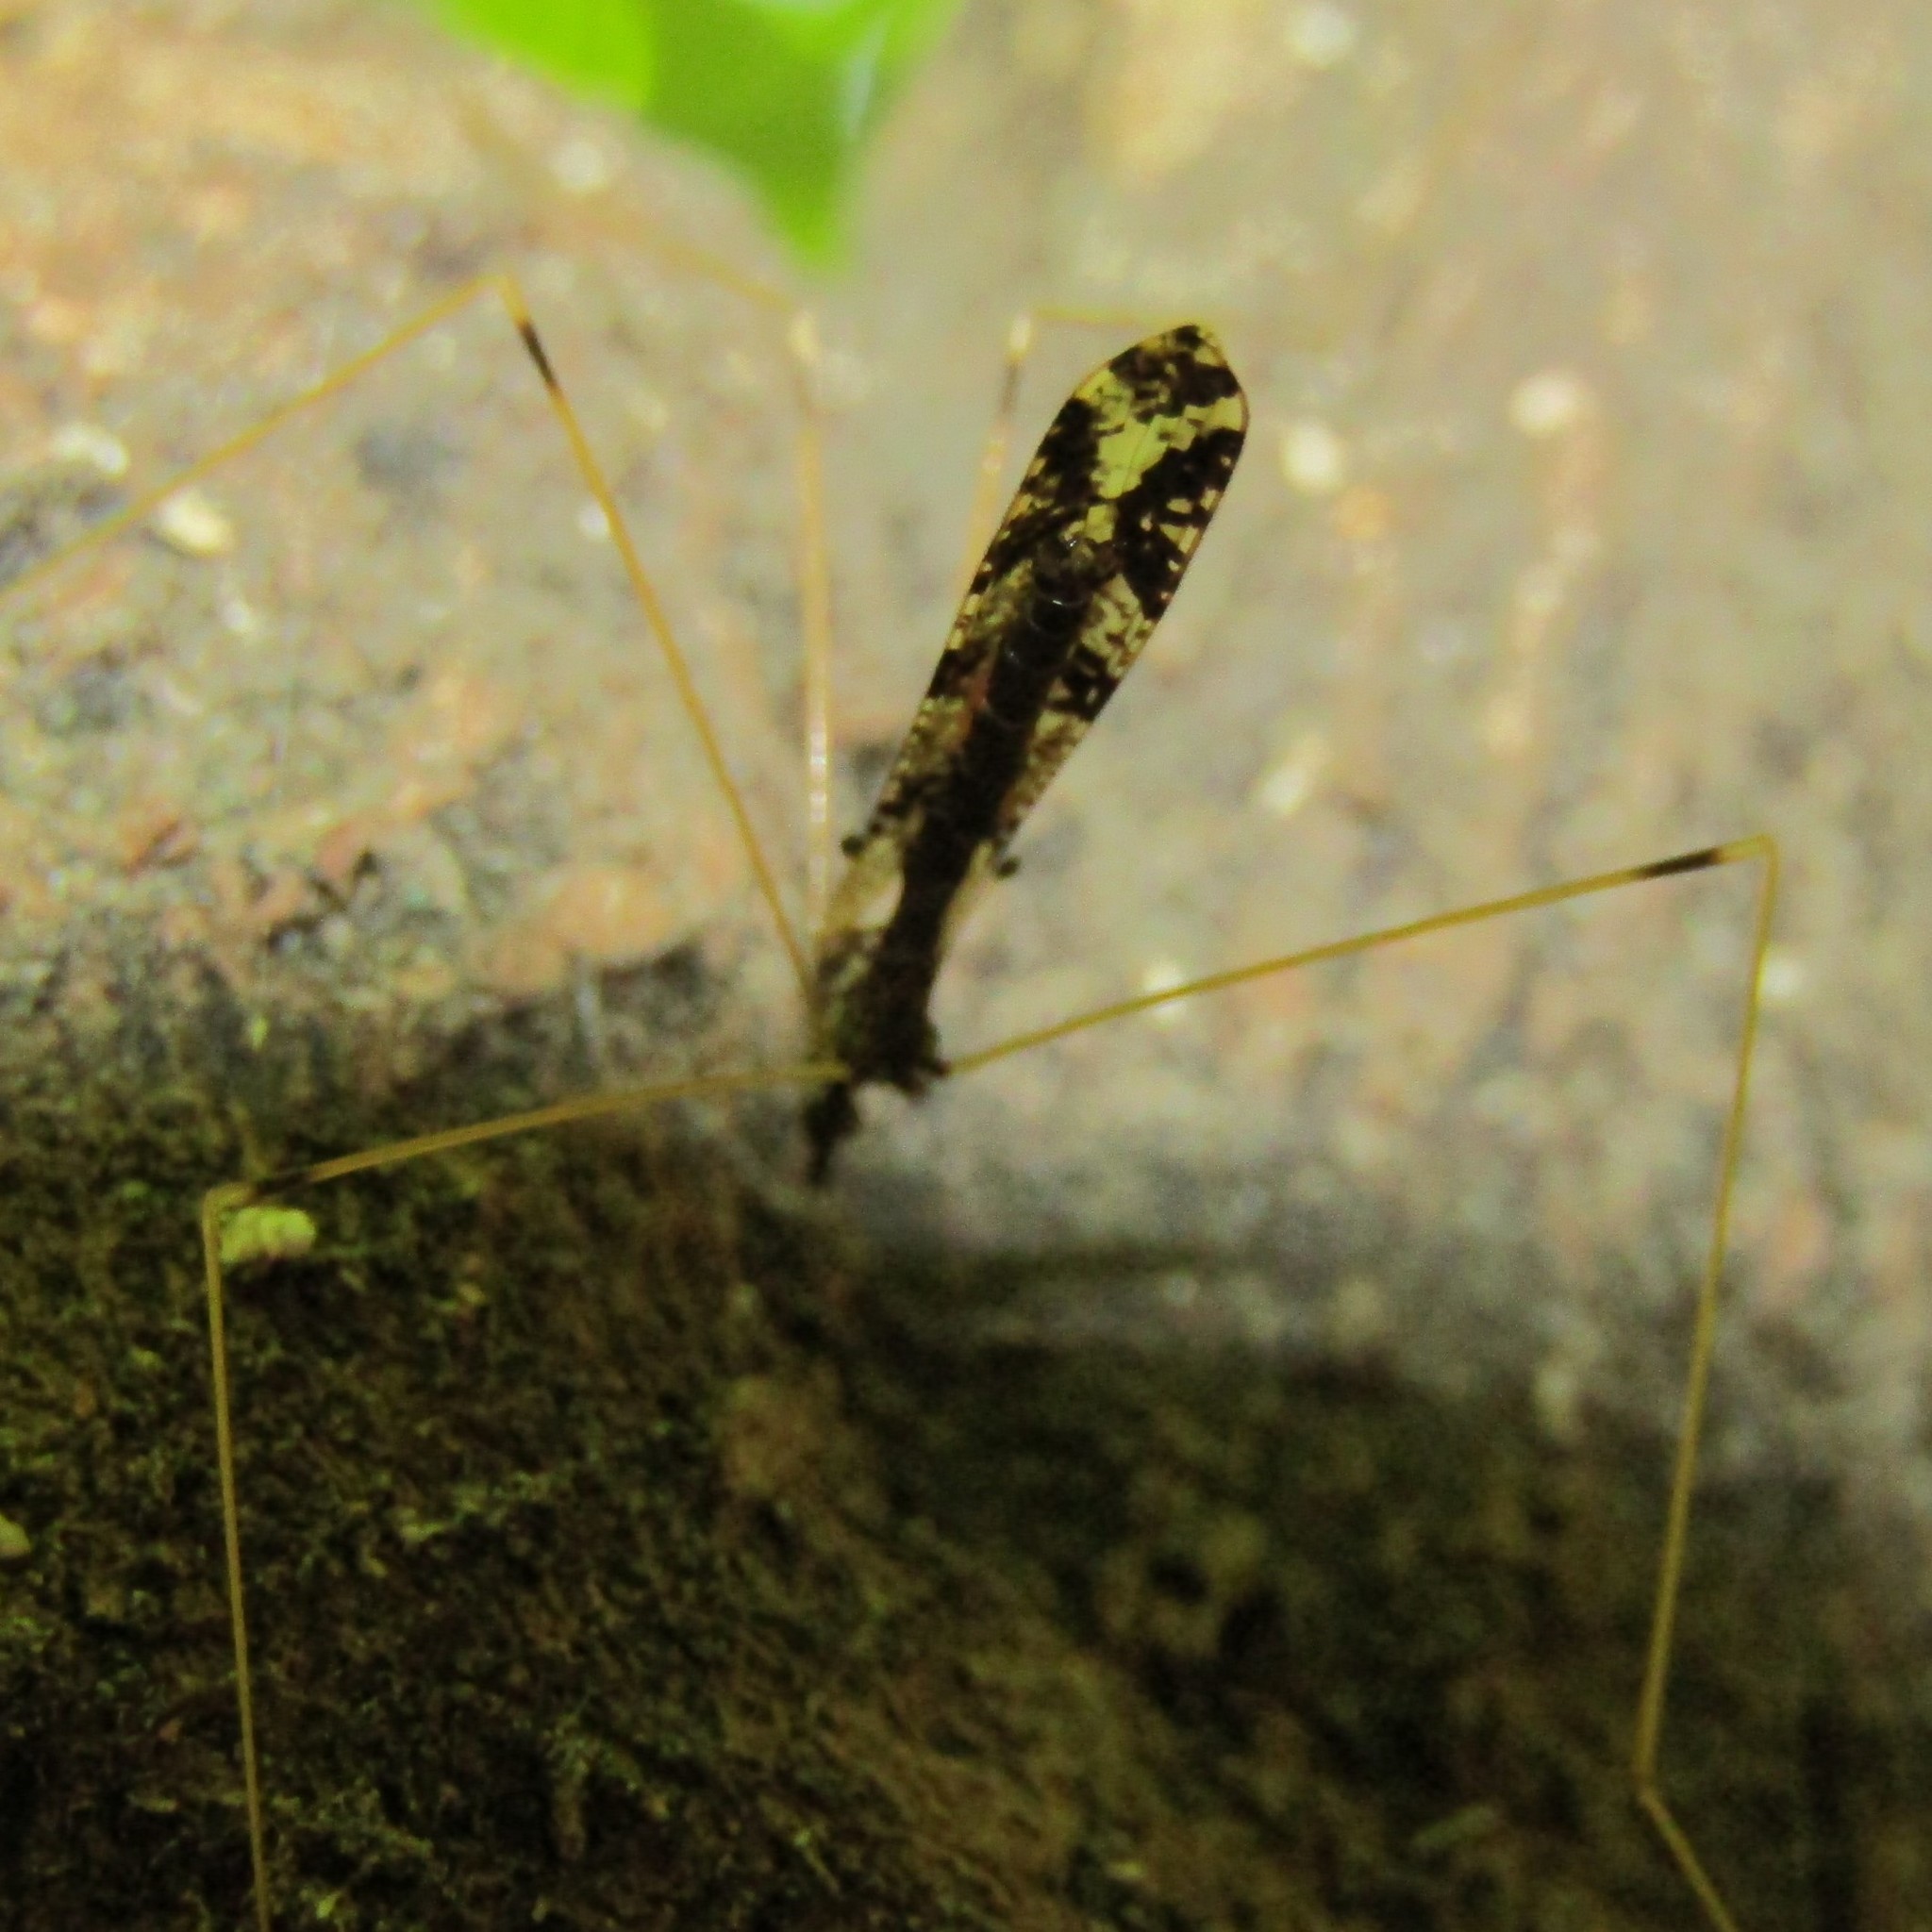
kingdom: Animalia
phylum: Arthropoda
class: Insecta
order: Diptera
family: Limoniidae
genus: Discobola
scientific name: Discobola striata
